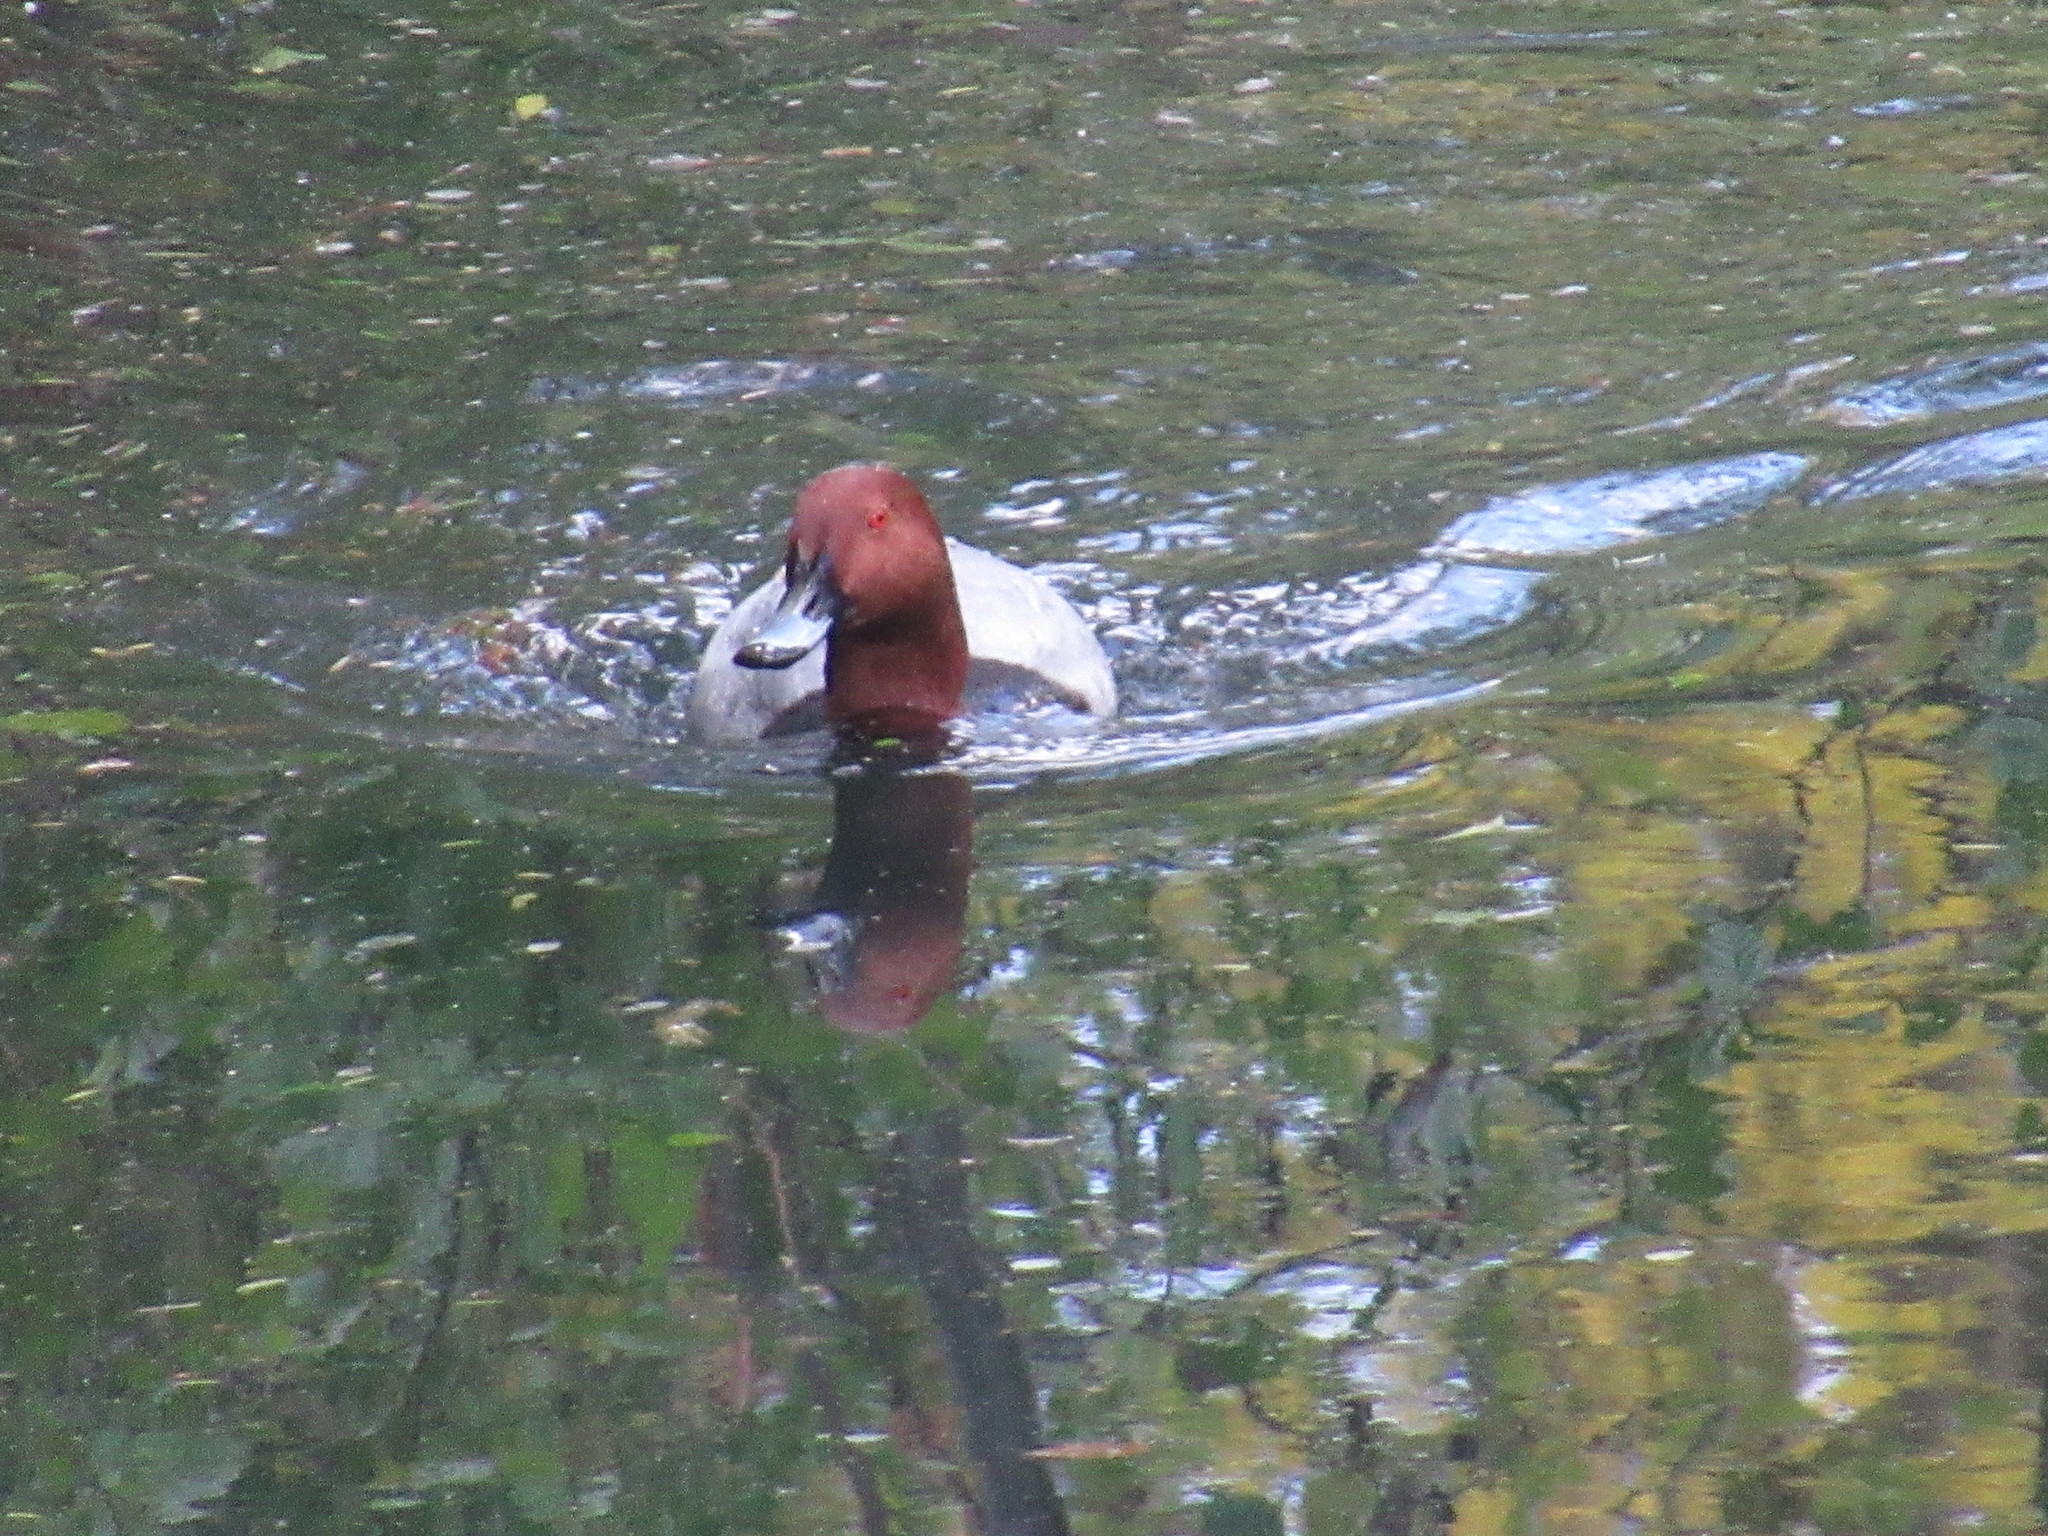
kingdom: Animalia
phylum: Chordata
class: Aves
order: Anseriformes
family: Anatidae
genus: Aythya
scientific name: Aythya ferina
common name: Common pochard
